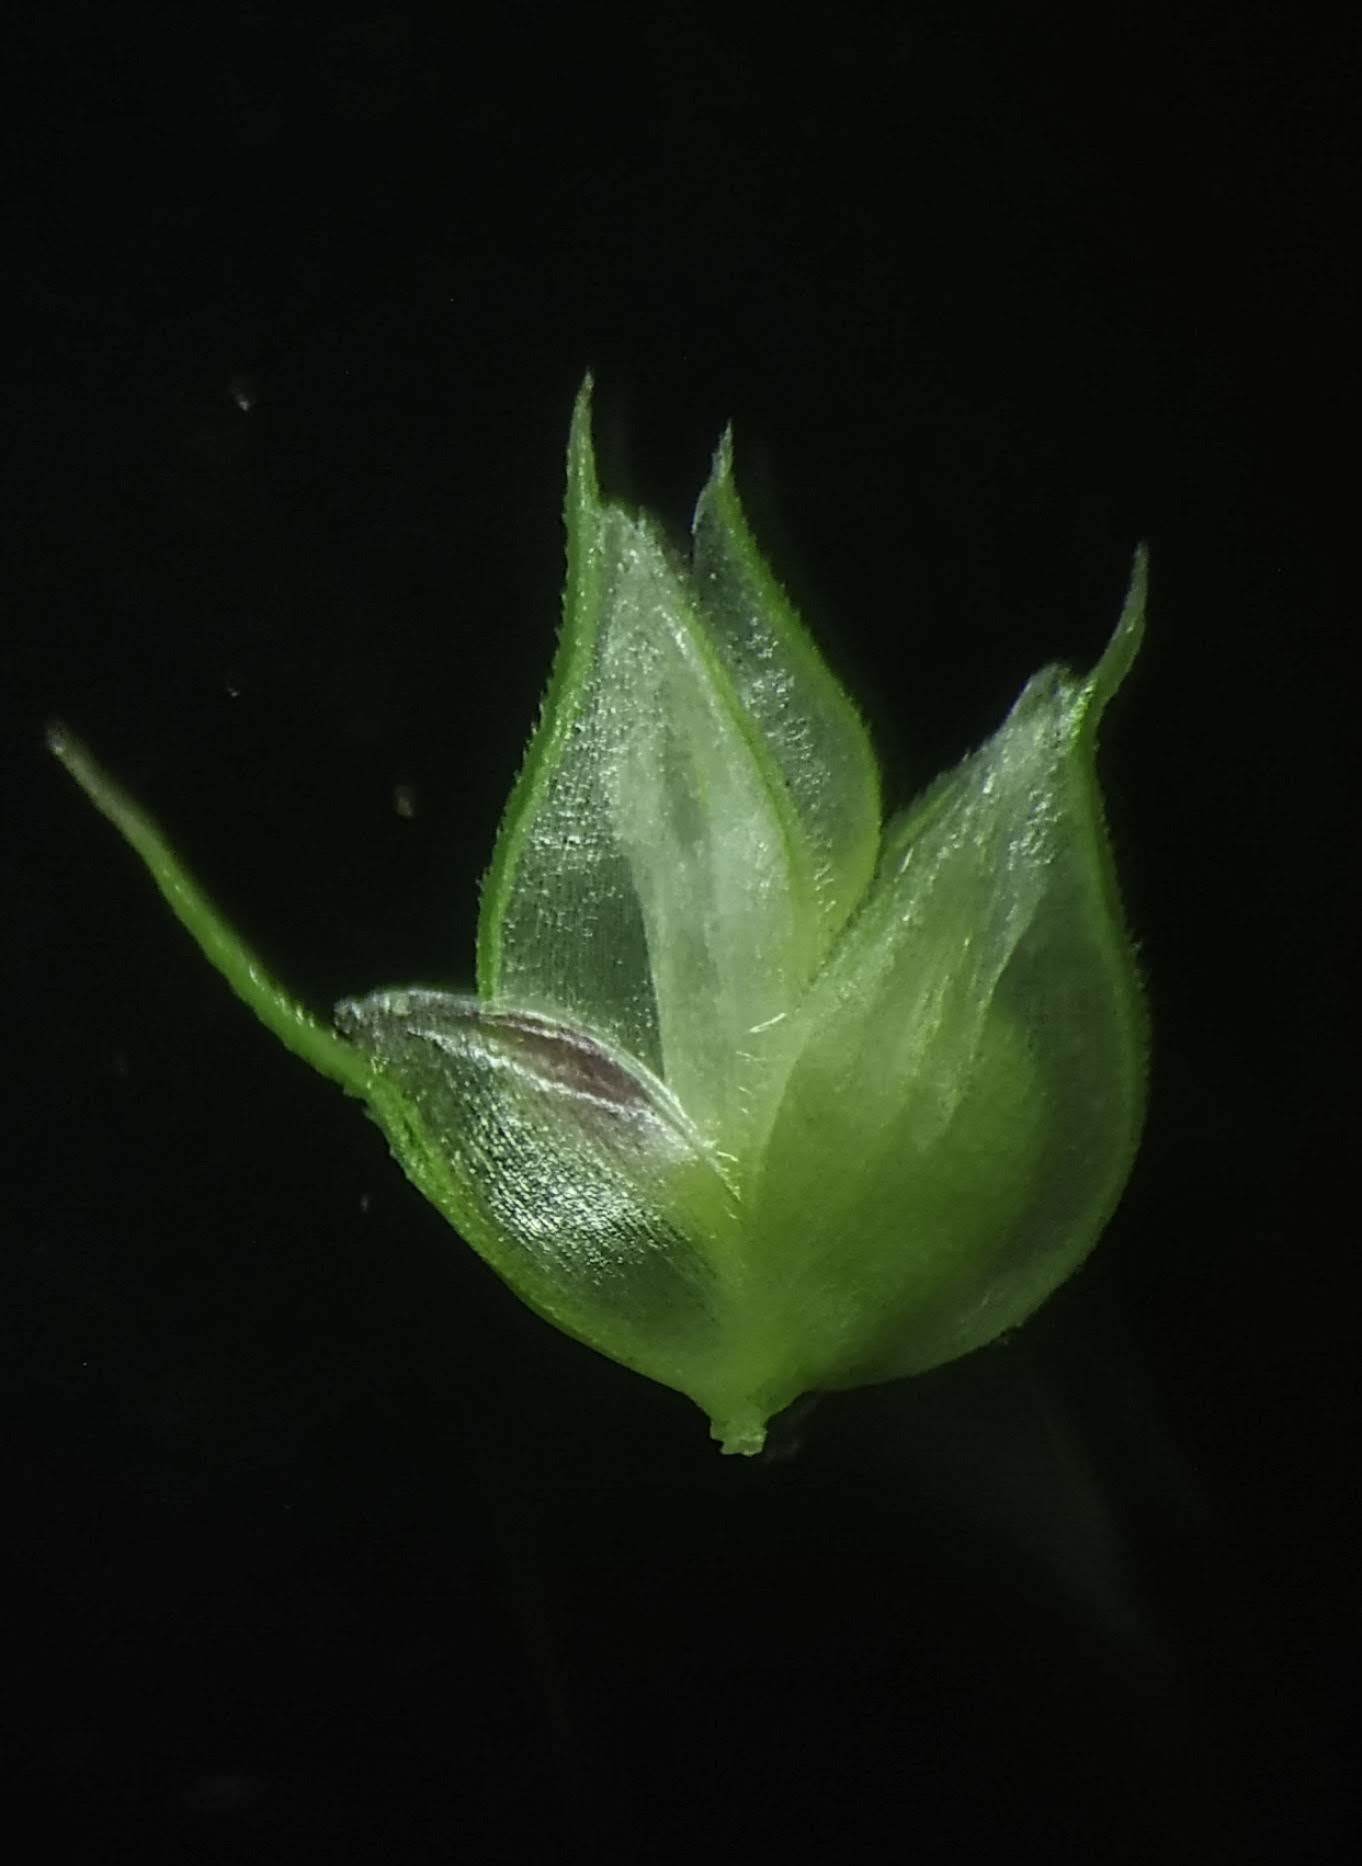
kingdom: Plantae
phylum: Tracheophyta
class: Liliopsida
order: Poales
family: Poaceae
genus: Dactyloctenium
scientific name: Dactyloctenium aegyptium
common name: Egyptian grass
